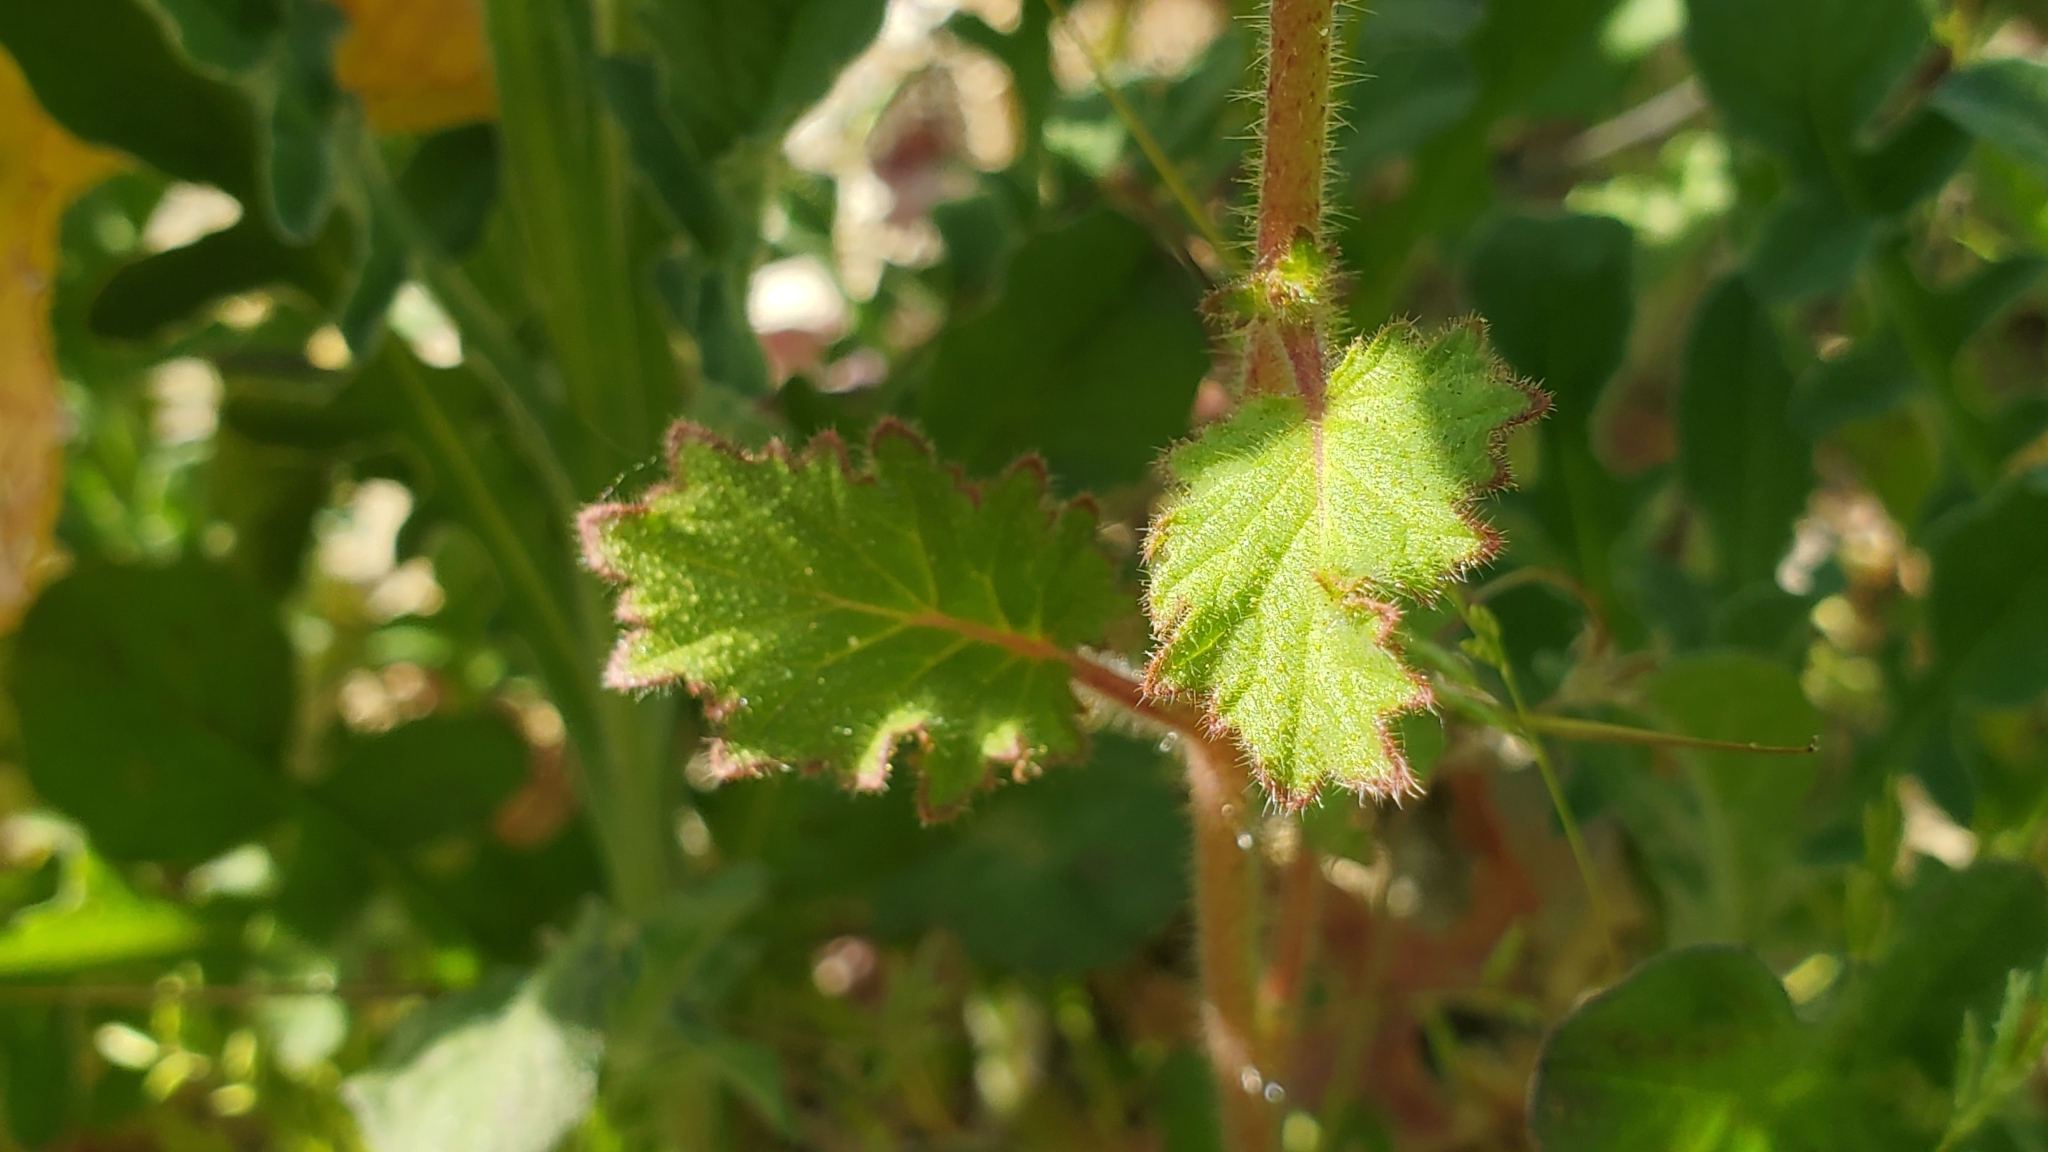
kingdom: Plantae
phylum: Tracheophyta
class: Magnoliopsida
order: Boraginales
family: Hydrophyllaceae
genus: Phacelia
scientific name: Phacelia parryi
